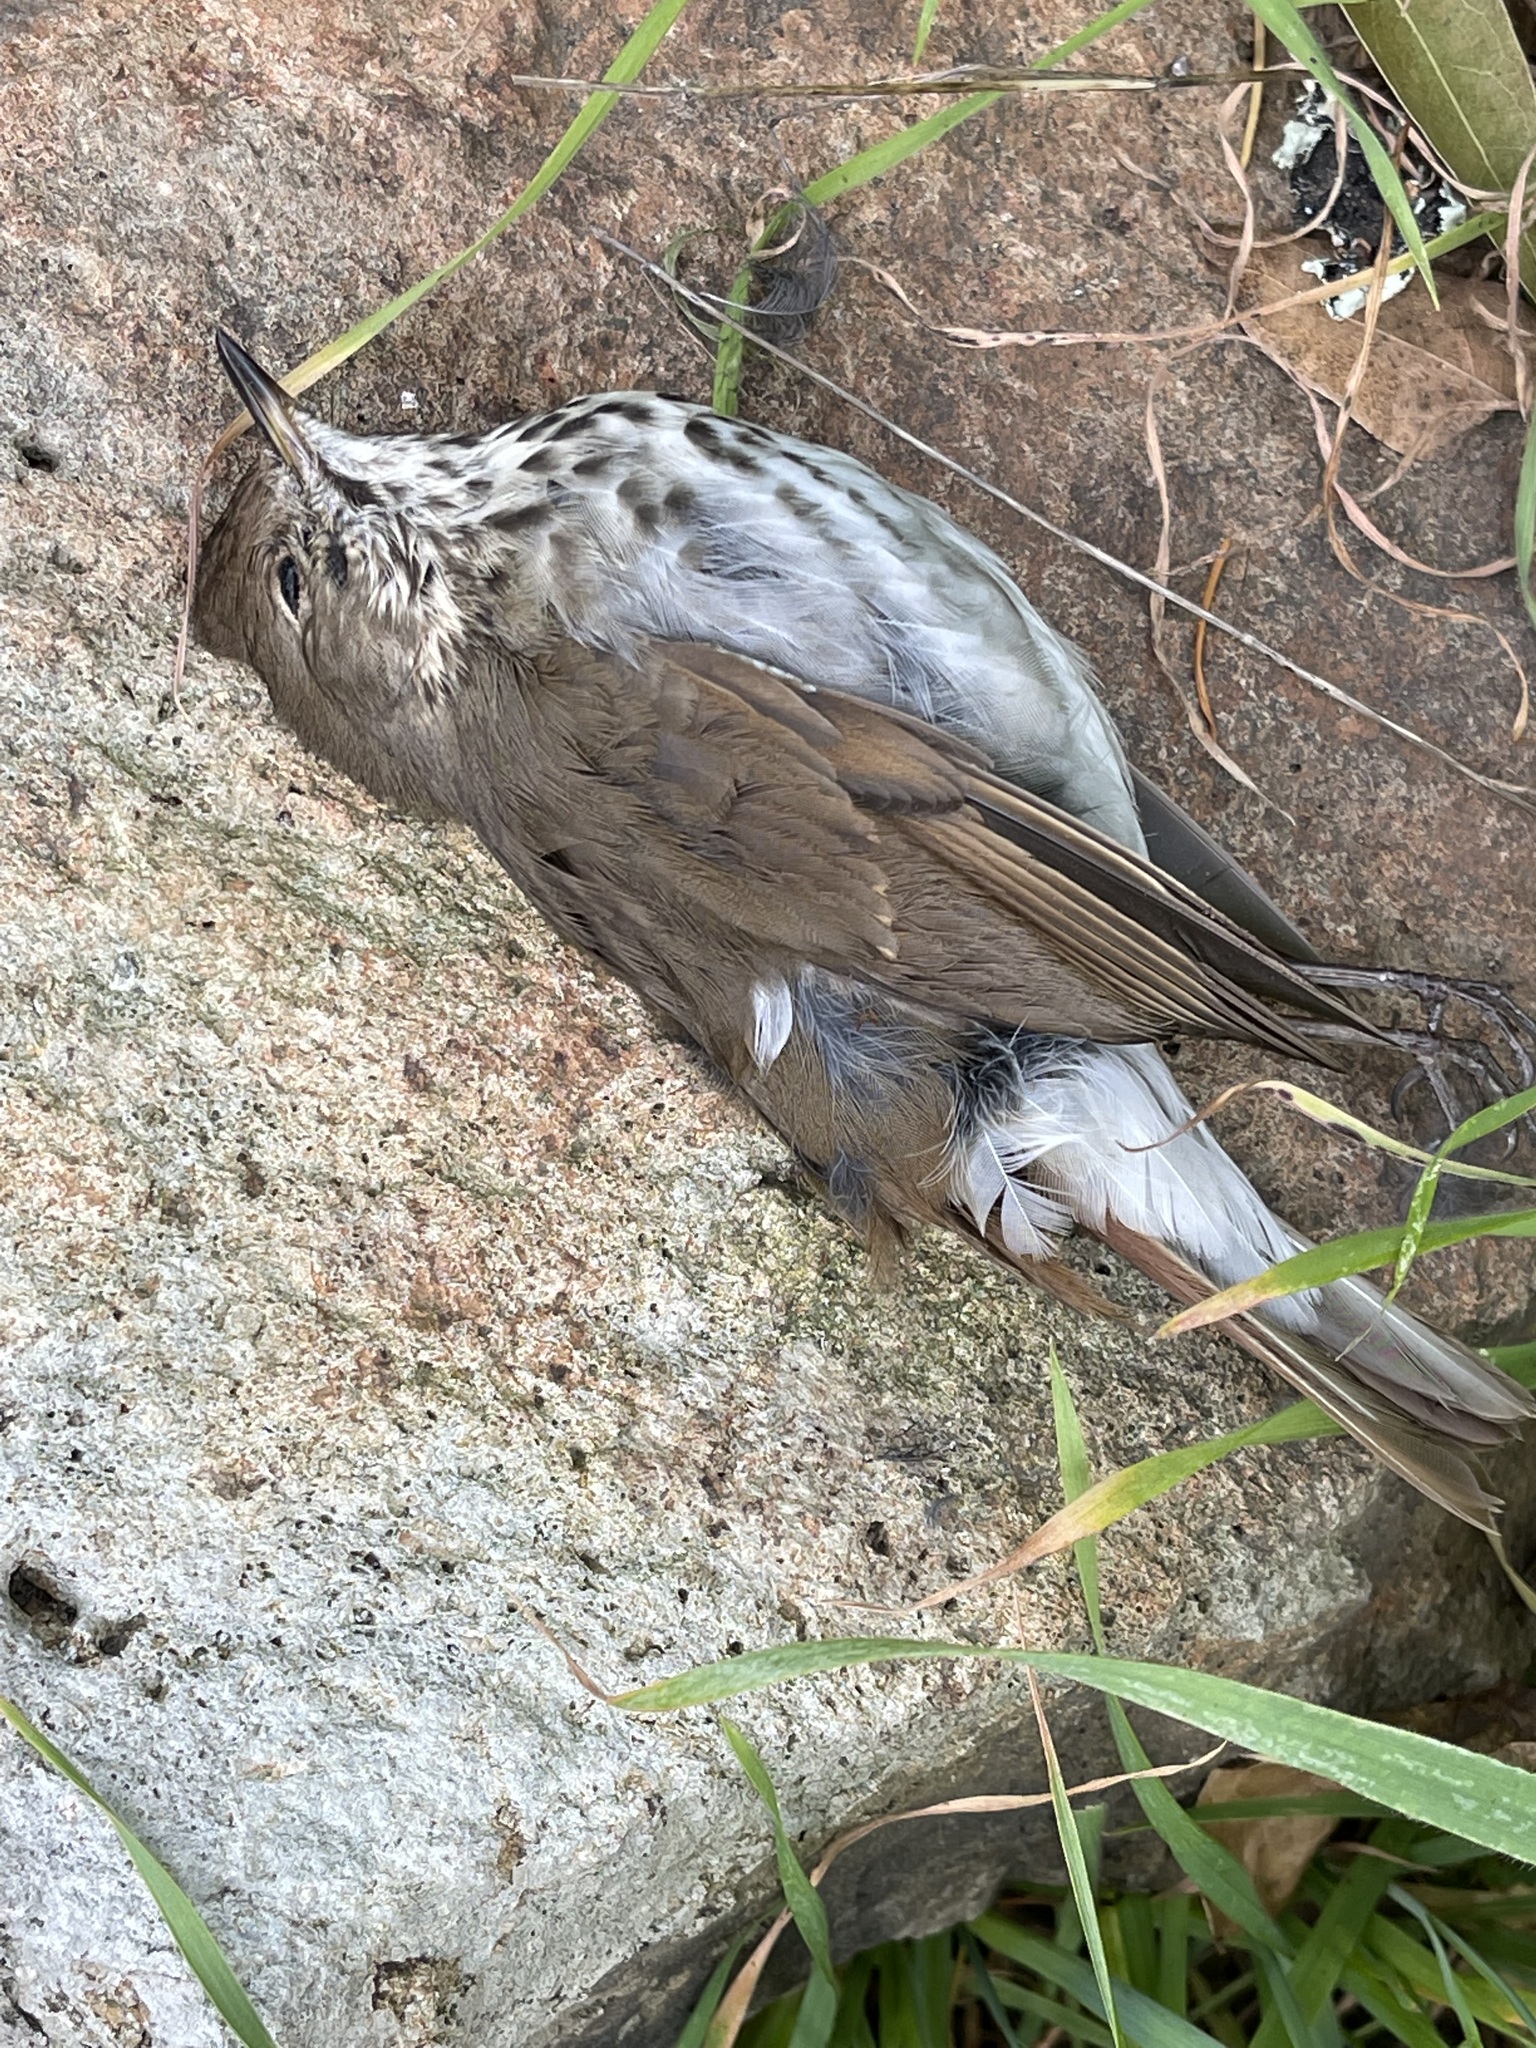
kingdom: Animalia
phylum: Chordata
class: Aves
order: Passeriformes
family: Turdidae
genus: Catharus
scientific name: Catharus guttatus
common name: Hermit thrush
